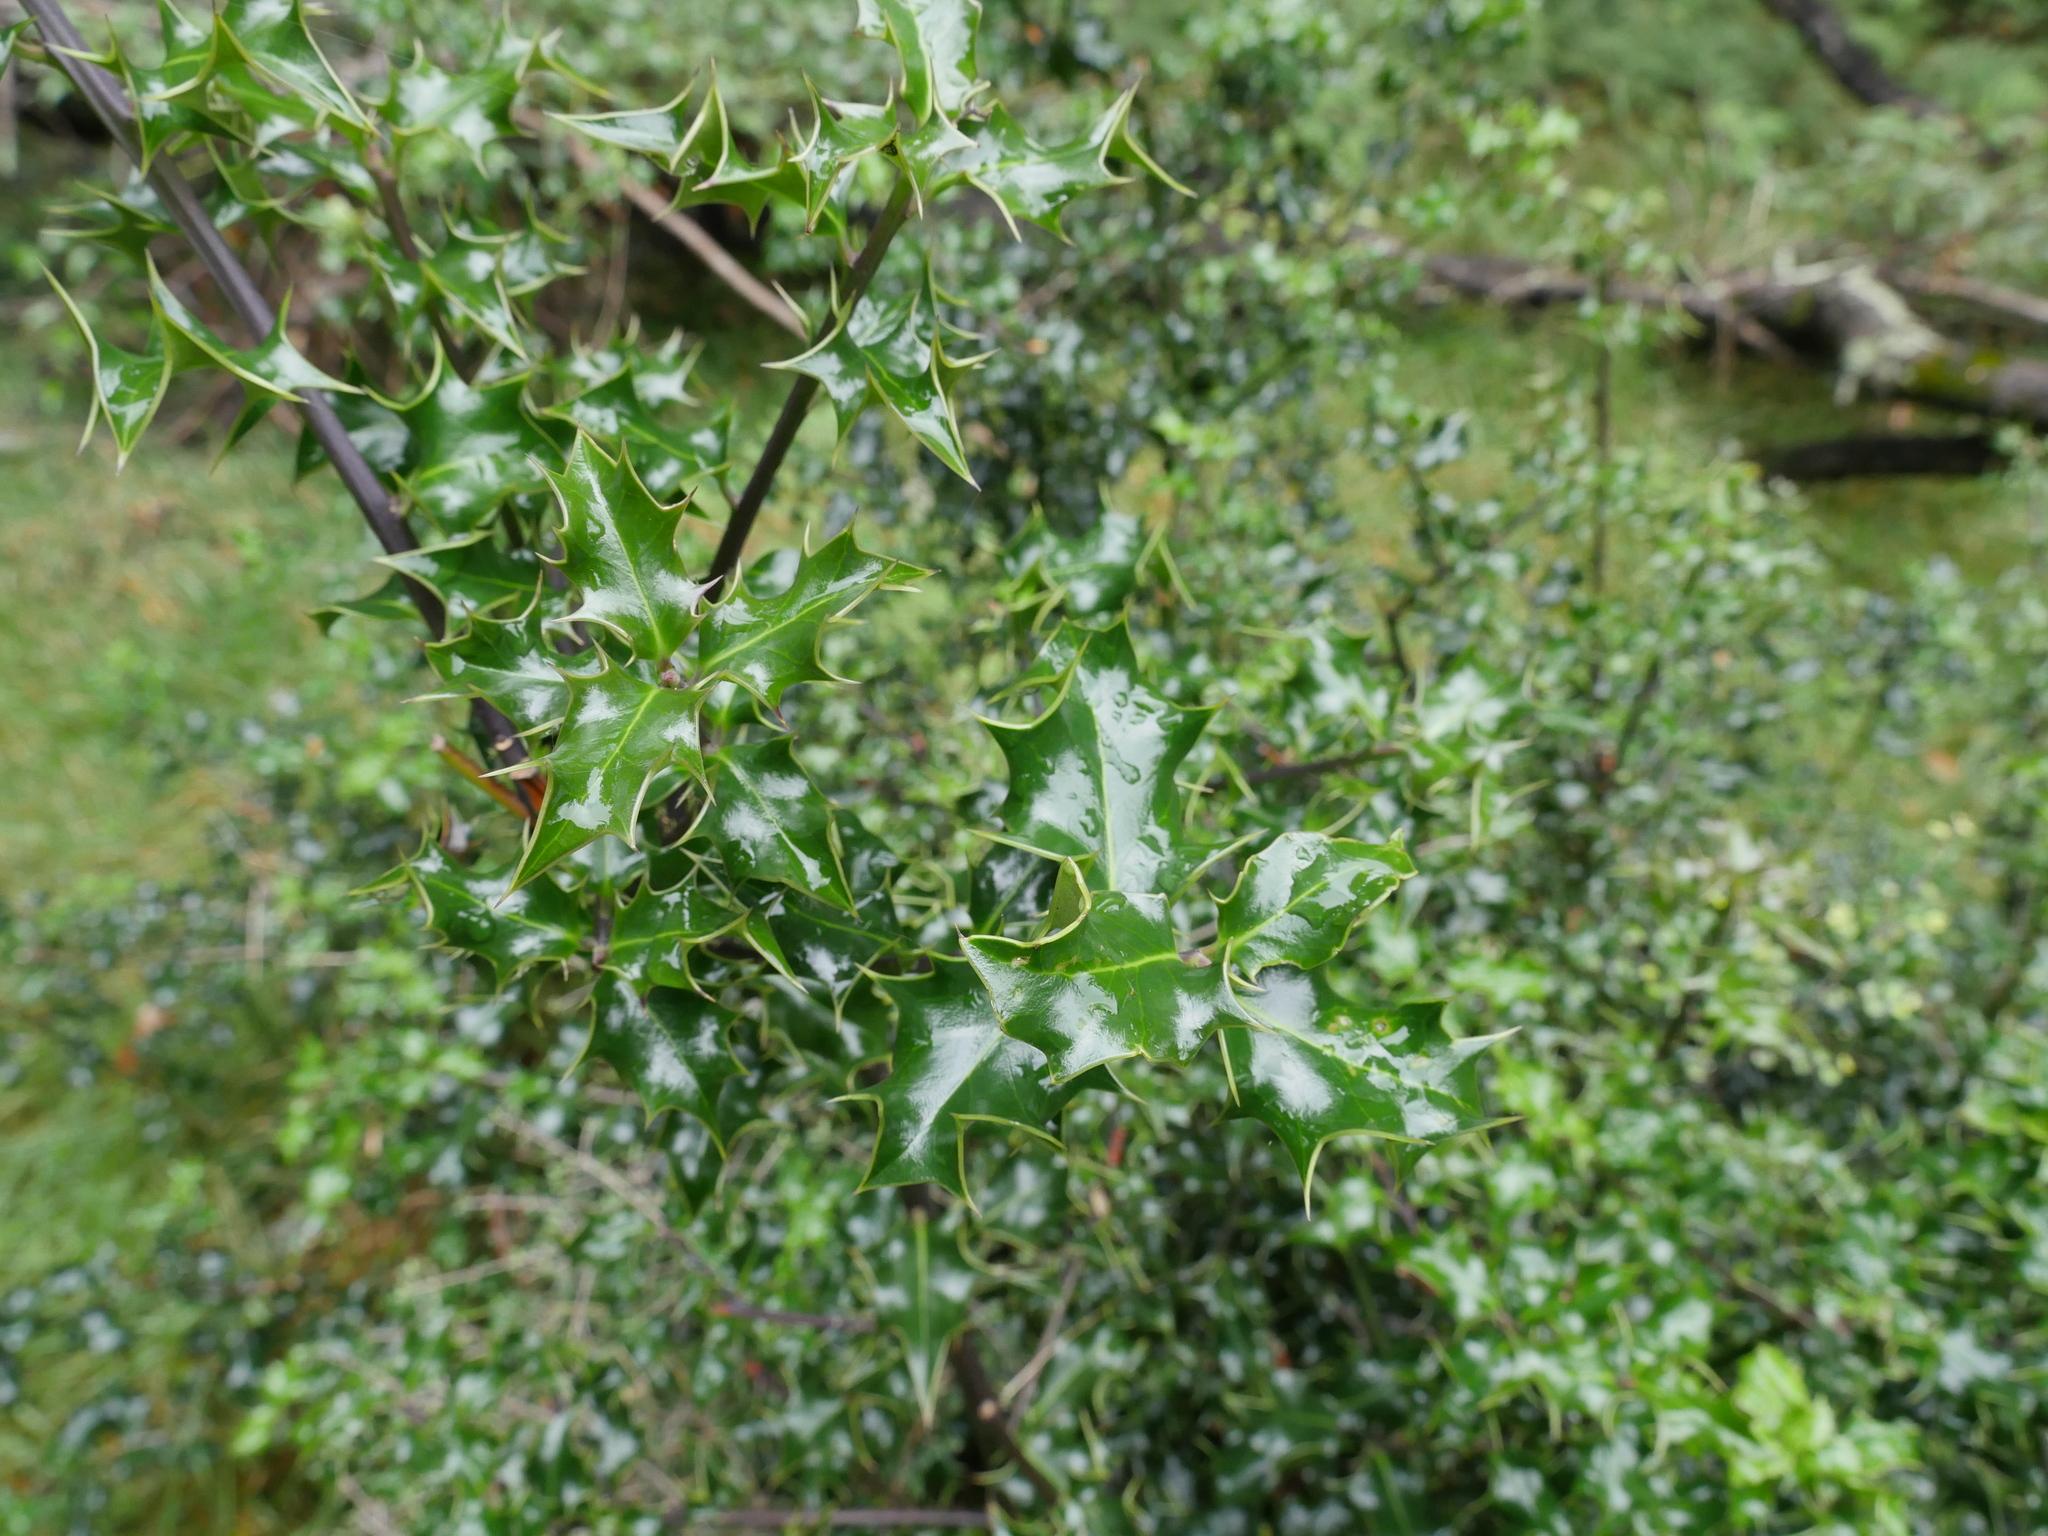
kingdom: Plantae
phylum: Tracheophyta
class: Magnoliopsida
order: Aquifoliales
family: Aquifoliaceae
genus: Ilex
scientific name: Ilex aquifolium
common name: English holly
